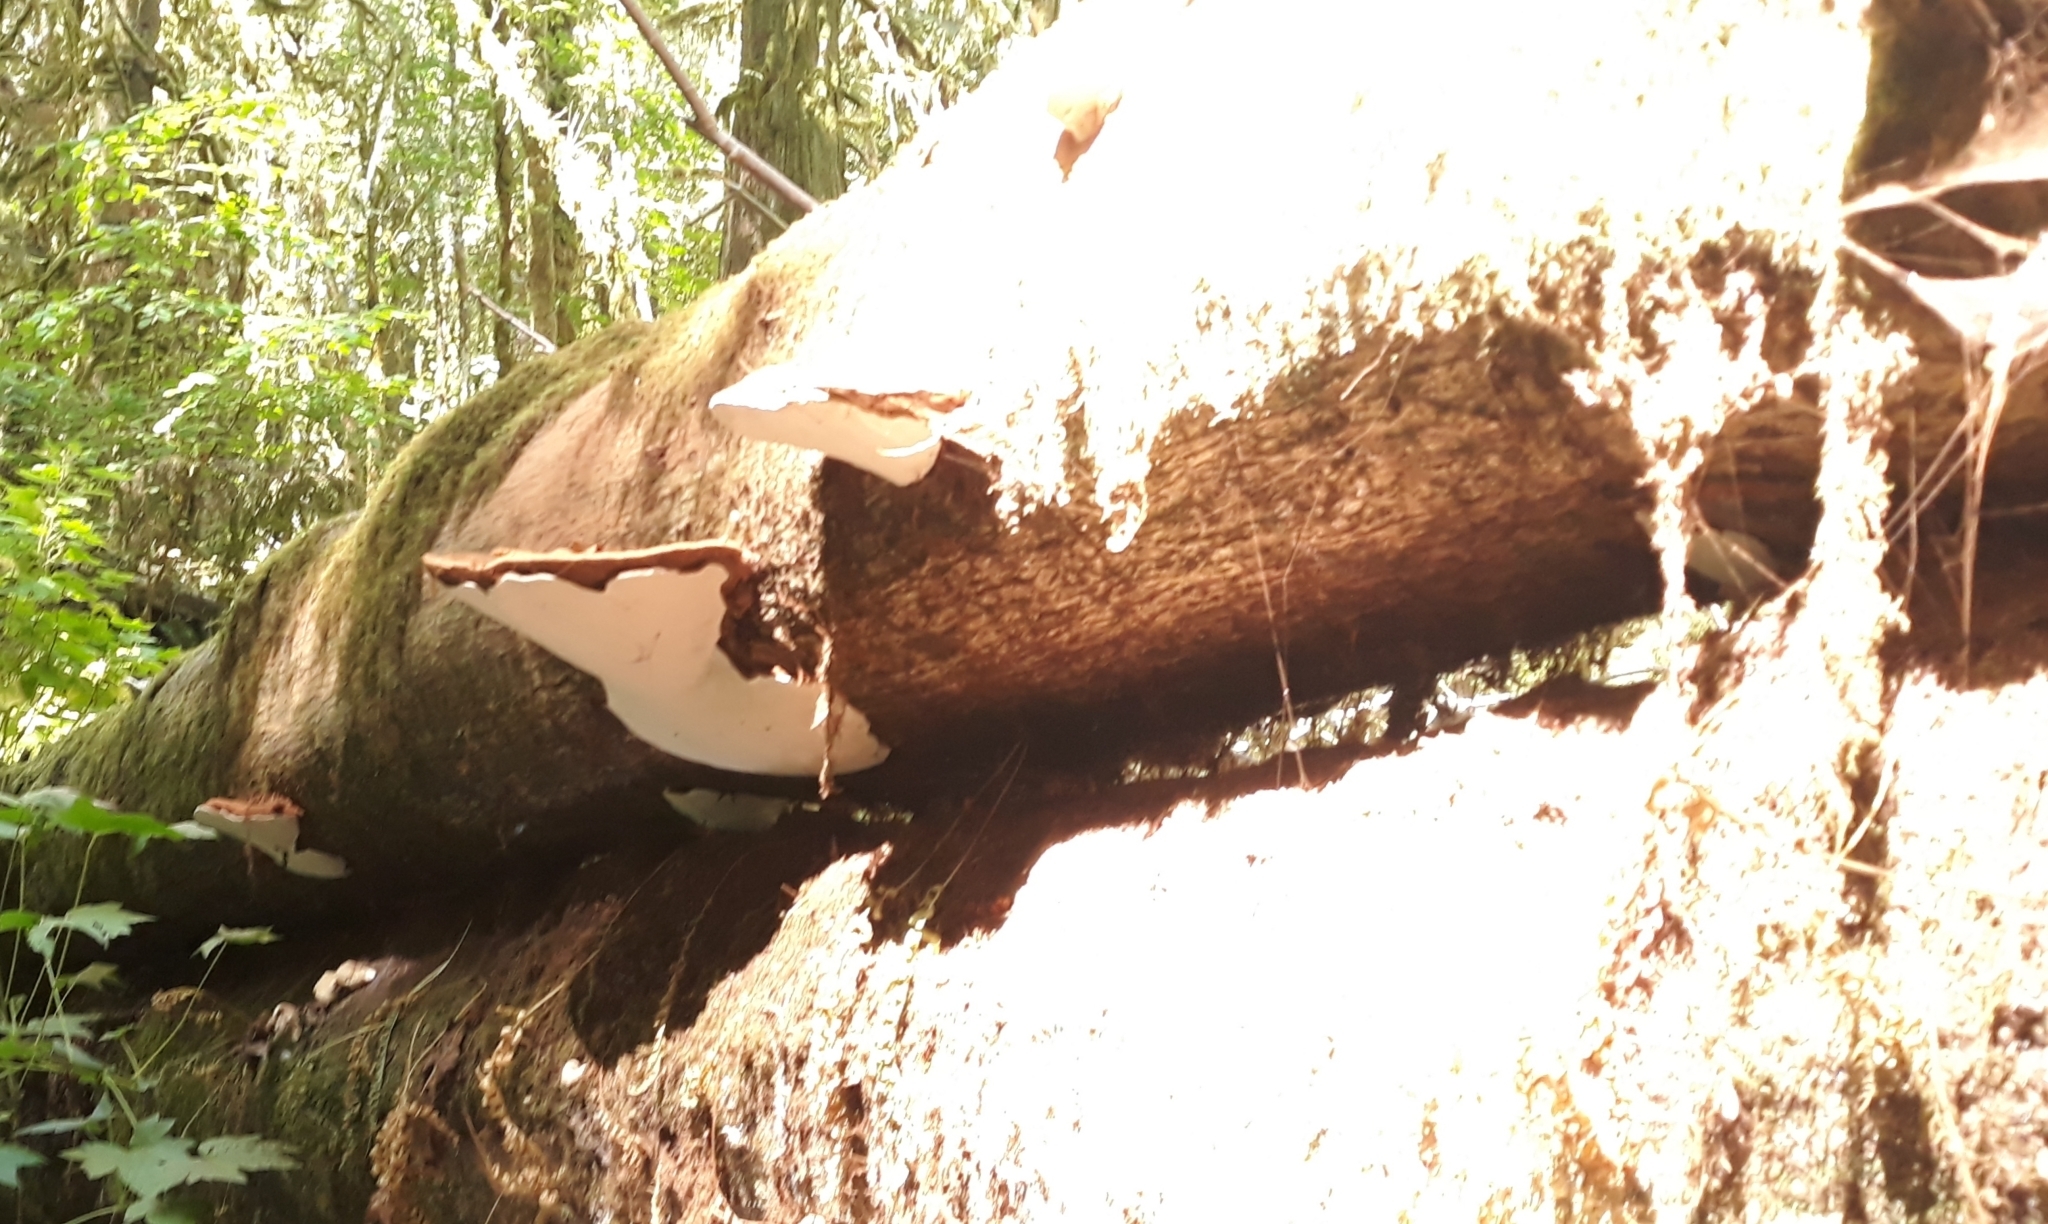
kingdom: Fungi
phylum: Basidiomycota
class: Agaricomycetes
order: Polyporales
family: Polyporaceae
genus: Ganoderma
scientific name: Ganoderma applanatum
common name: Artist's bracket
